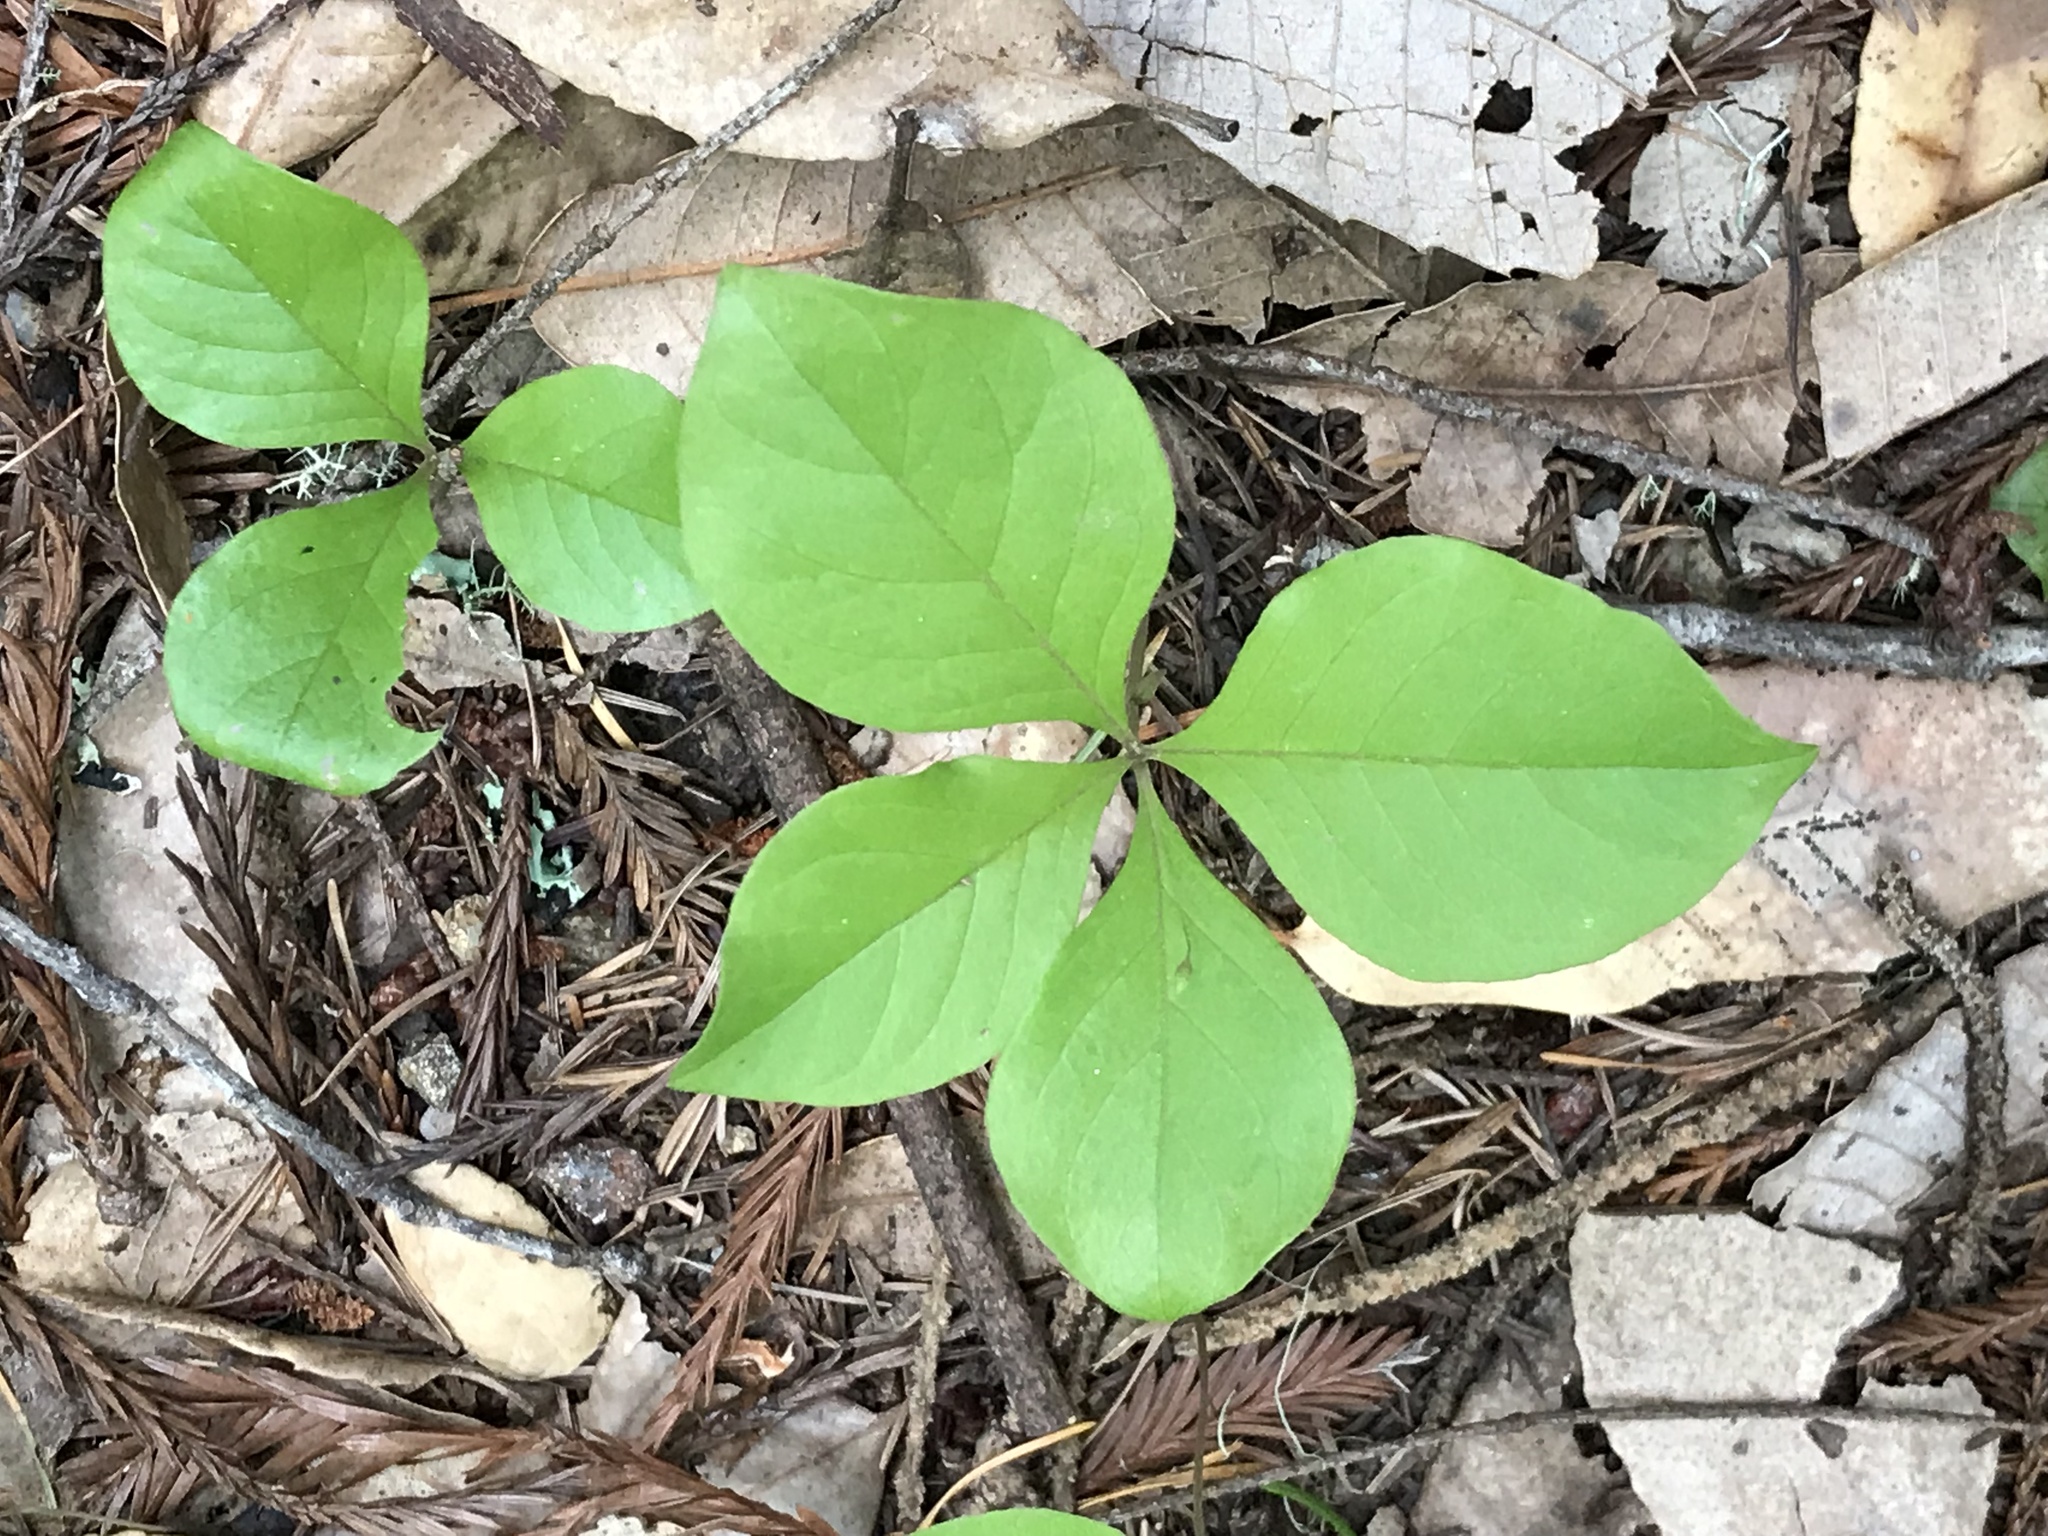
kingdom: Plantae
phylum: Tracheophyta
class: Magnoliopsida
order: Ericales
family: Primulaceae
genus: Lysimachia
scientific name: Lysimachia latifolia
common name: Pacific starflower
